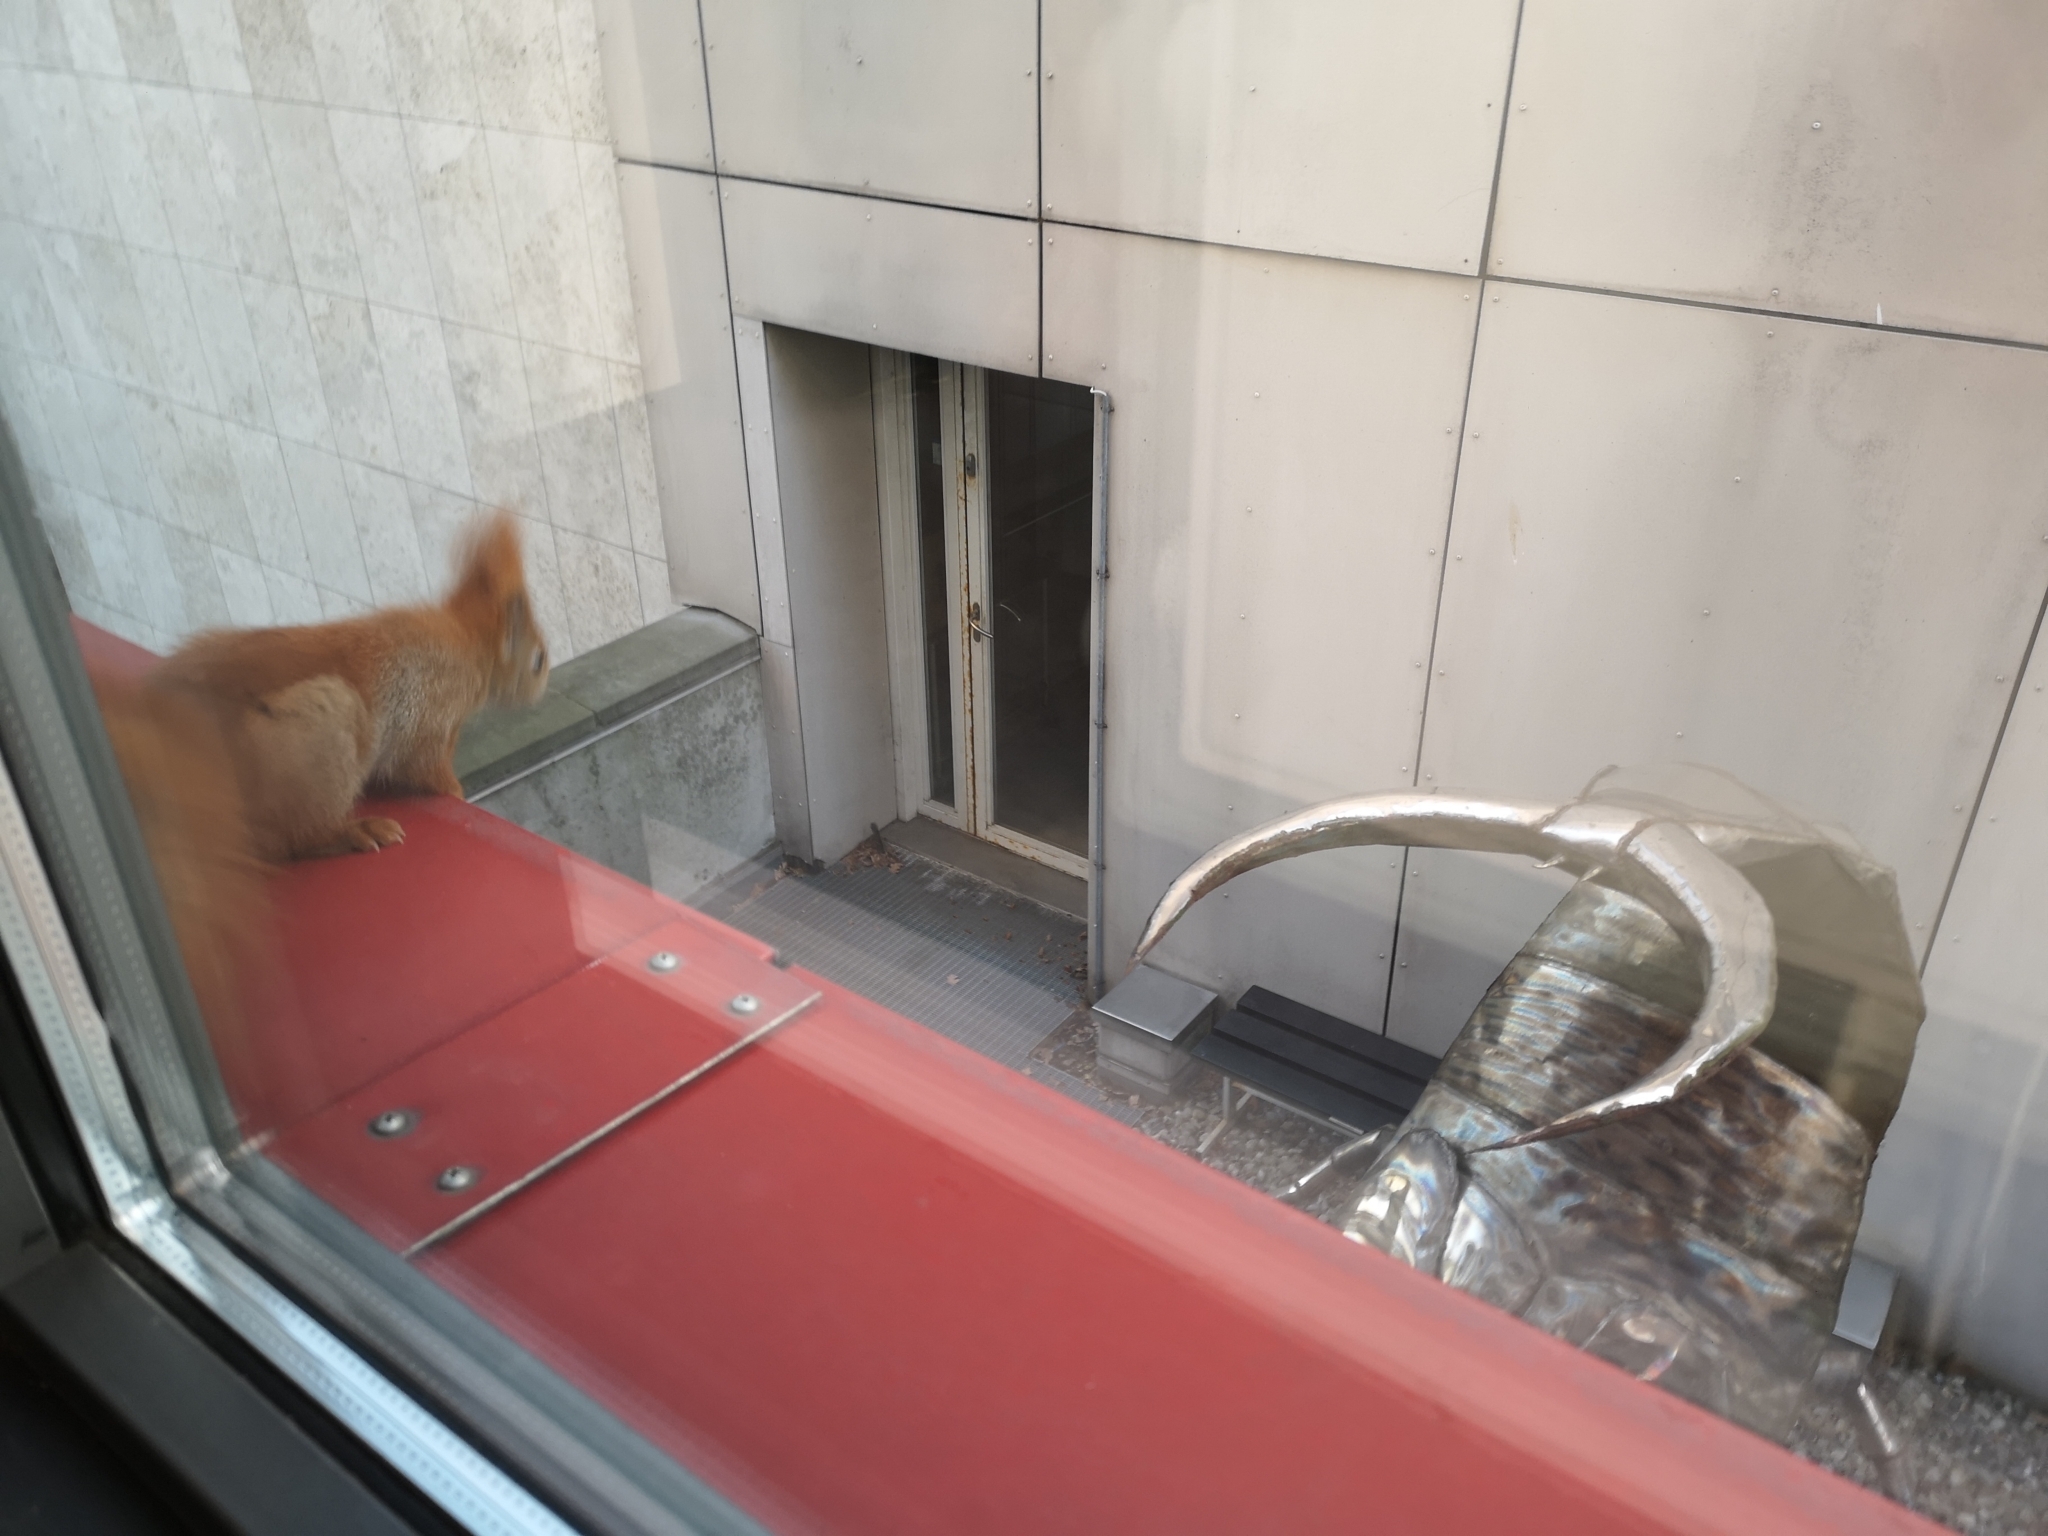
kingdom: Animalia
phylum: Chordata
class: Mammalia
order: Rodentia
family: Sciuridae
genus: Sciurus
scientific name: Sciurus vulgaris
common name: Eurasian red squirrel
